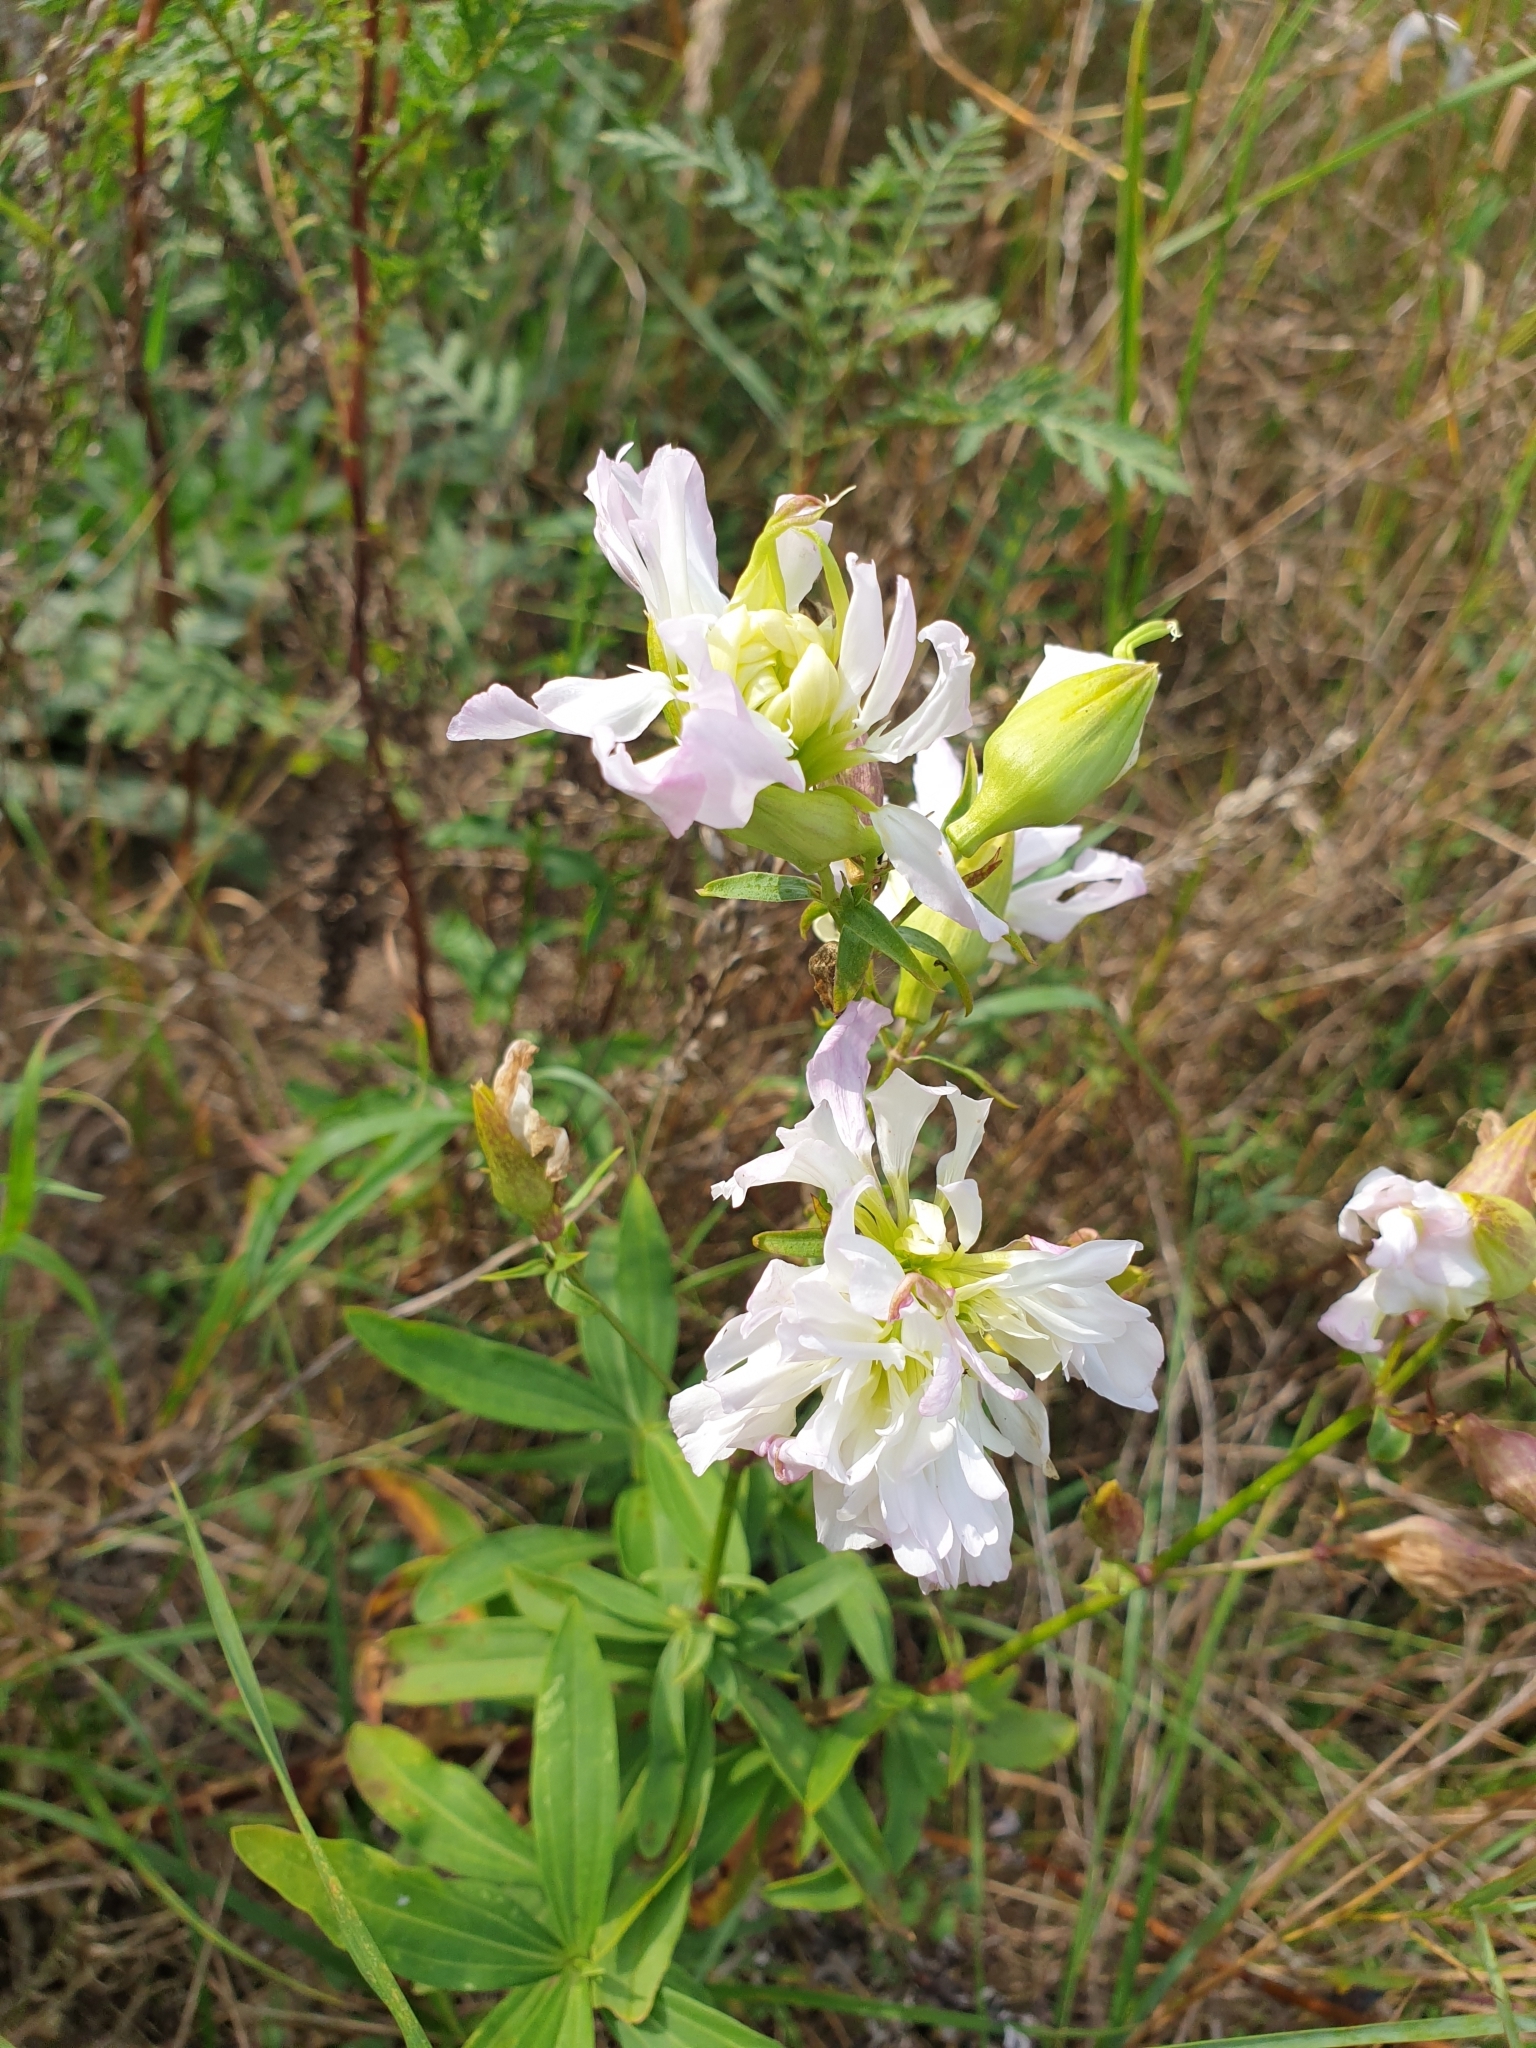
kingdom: Plantae
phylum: Tracheophyta
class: Magnoliopsida
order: Caryophyllales
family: Caryophyllaceae
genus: Saponaria
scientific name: Saponaria officinalis
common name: Soapwort
